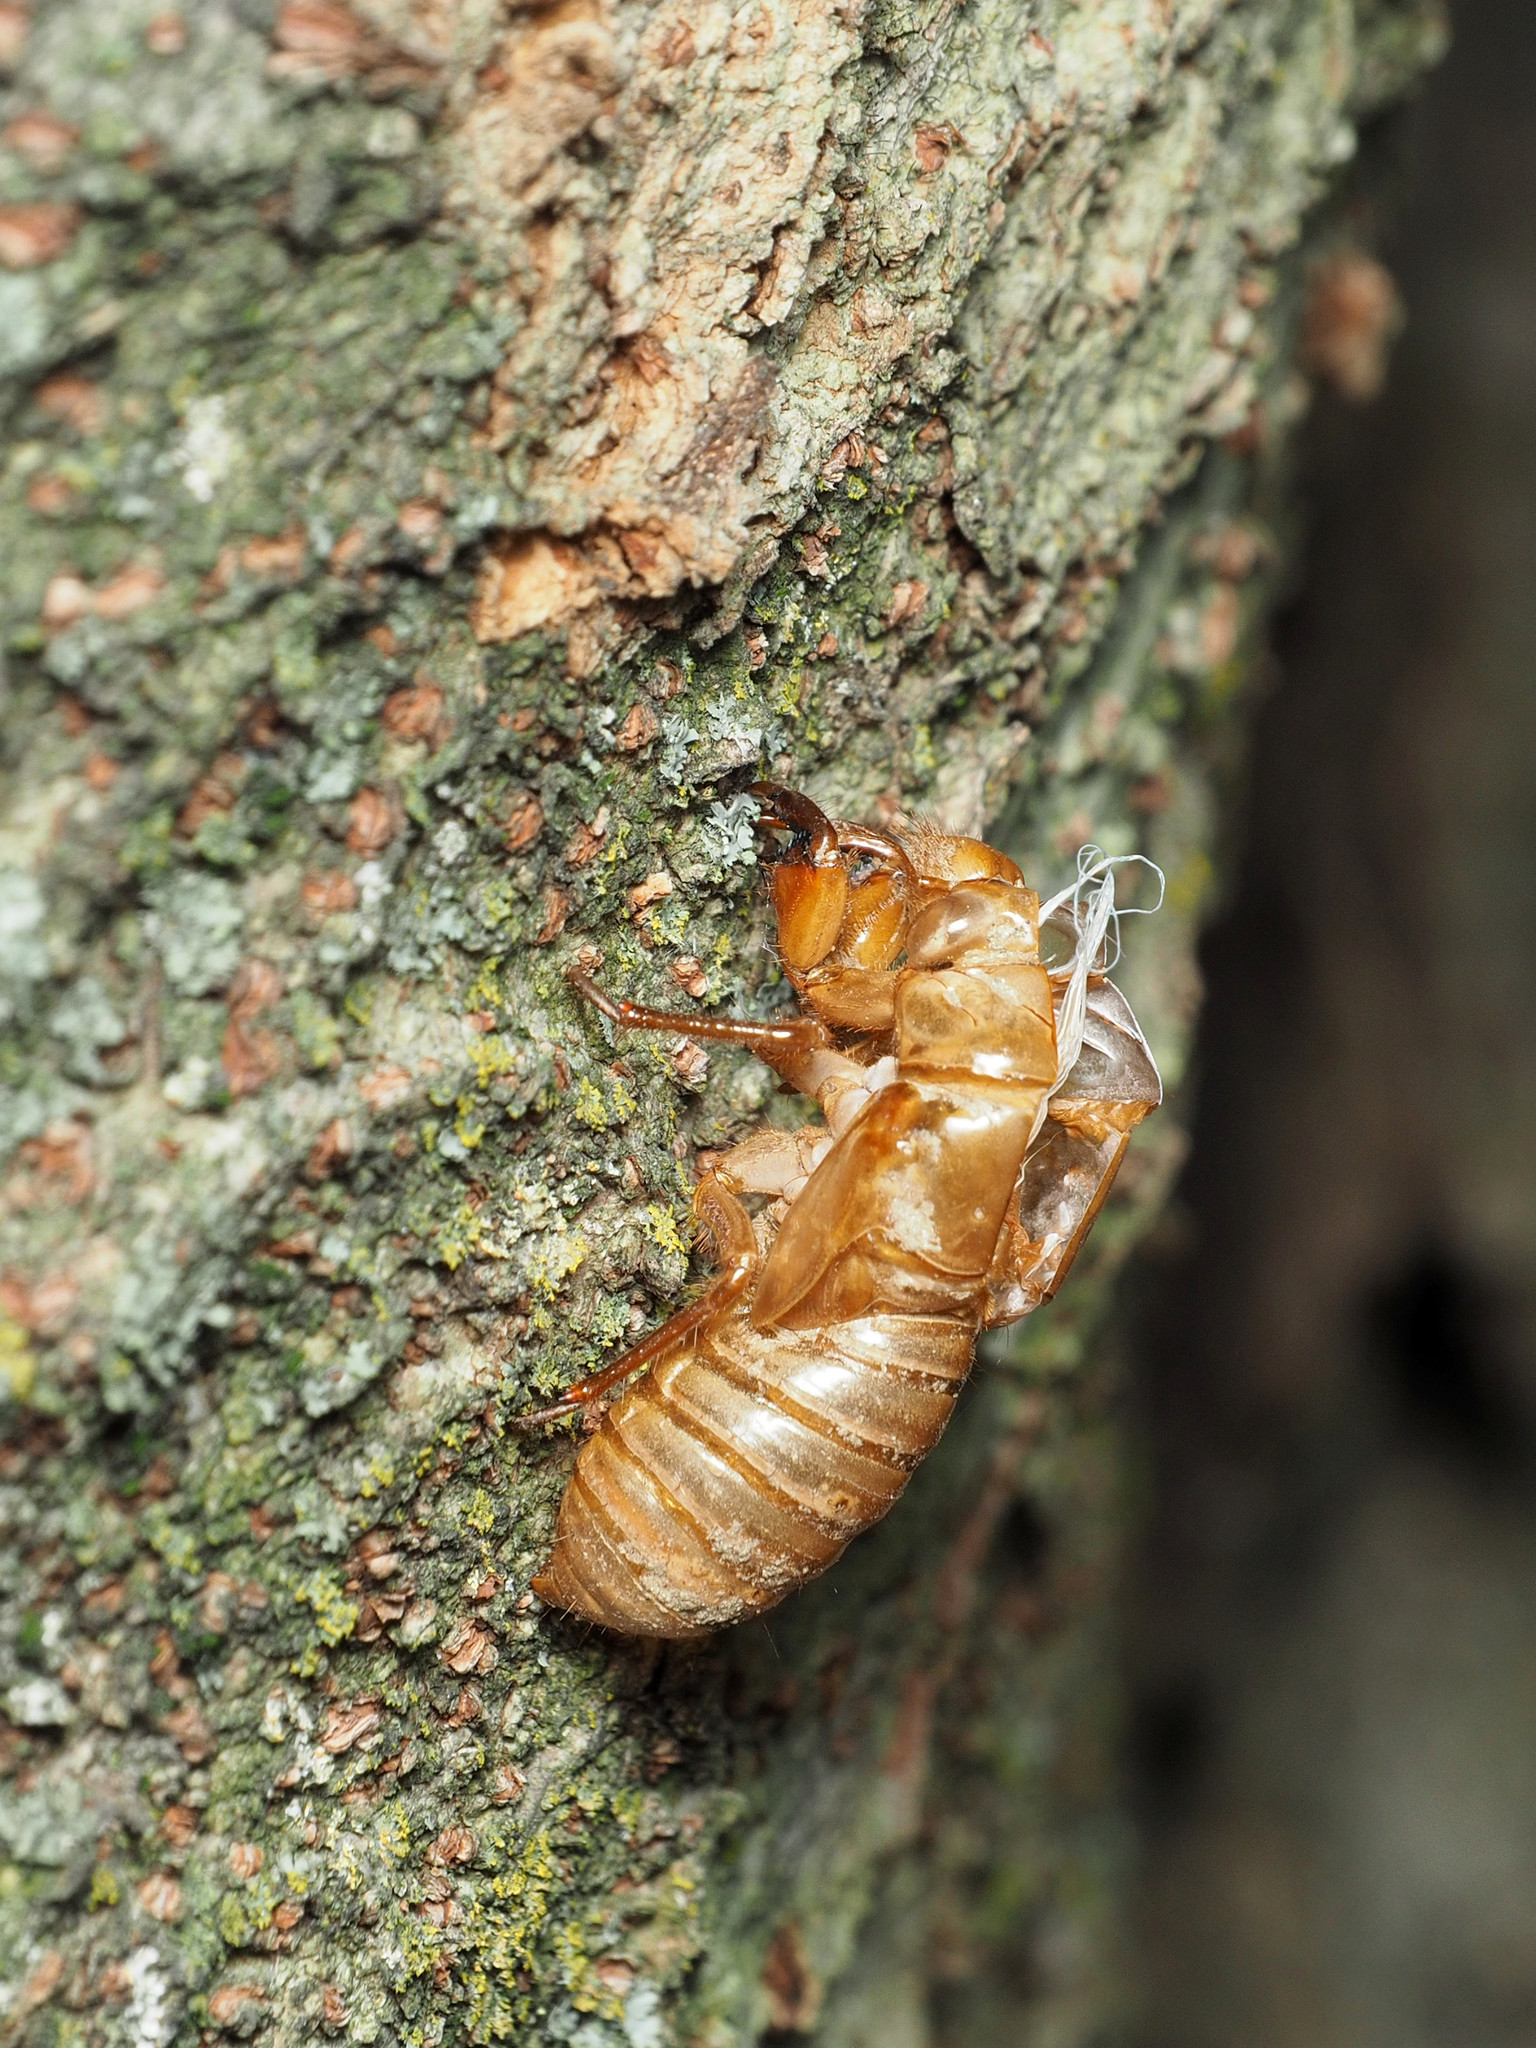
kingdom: Animalia
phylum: Arthropoda
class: Insecta
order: Hemiptera
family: Cicadidae
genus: Magicicada
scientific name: Magicicada
